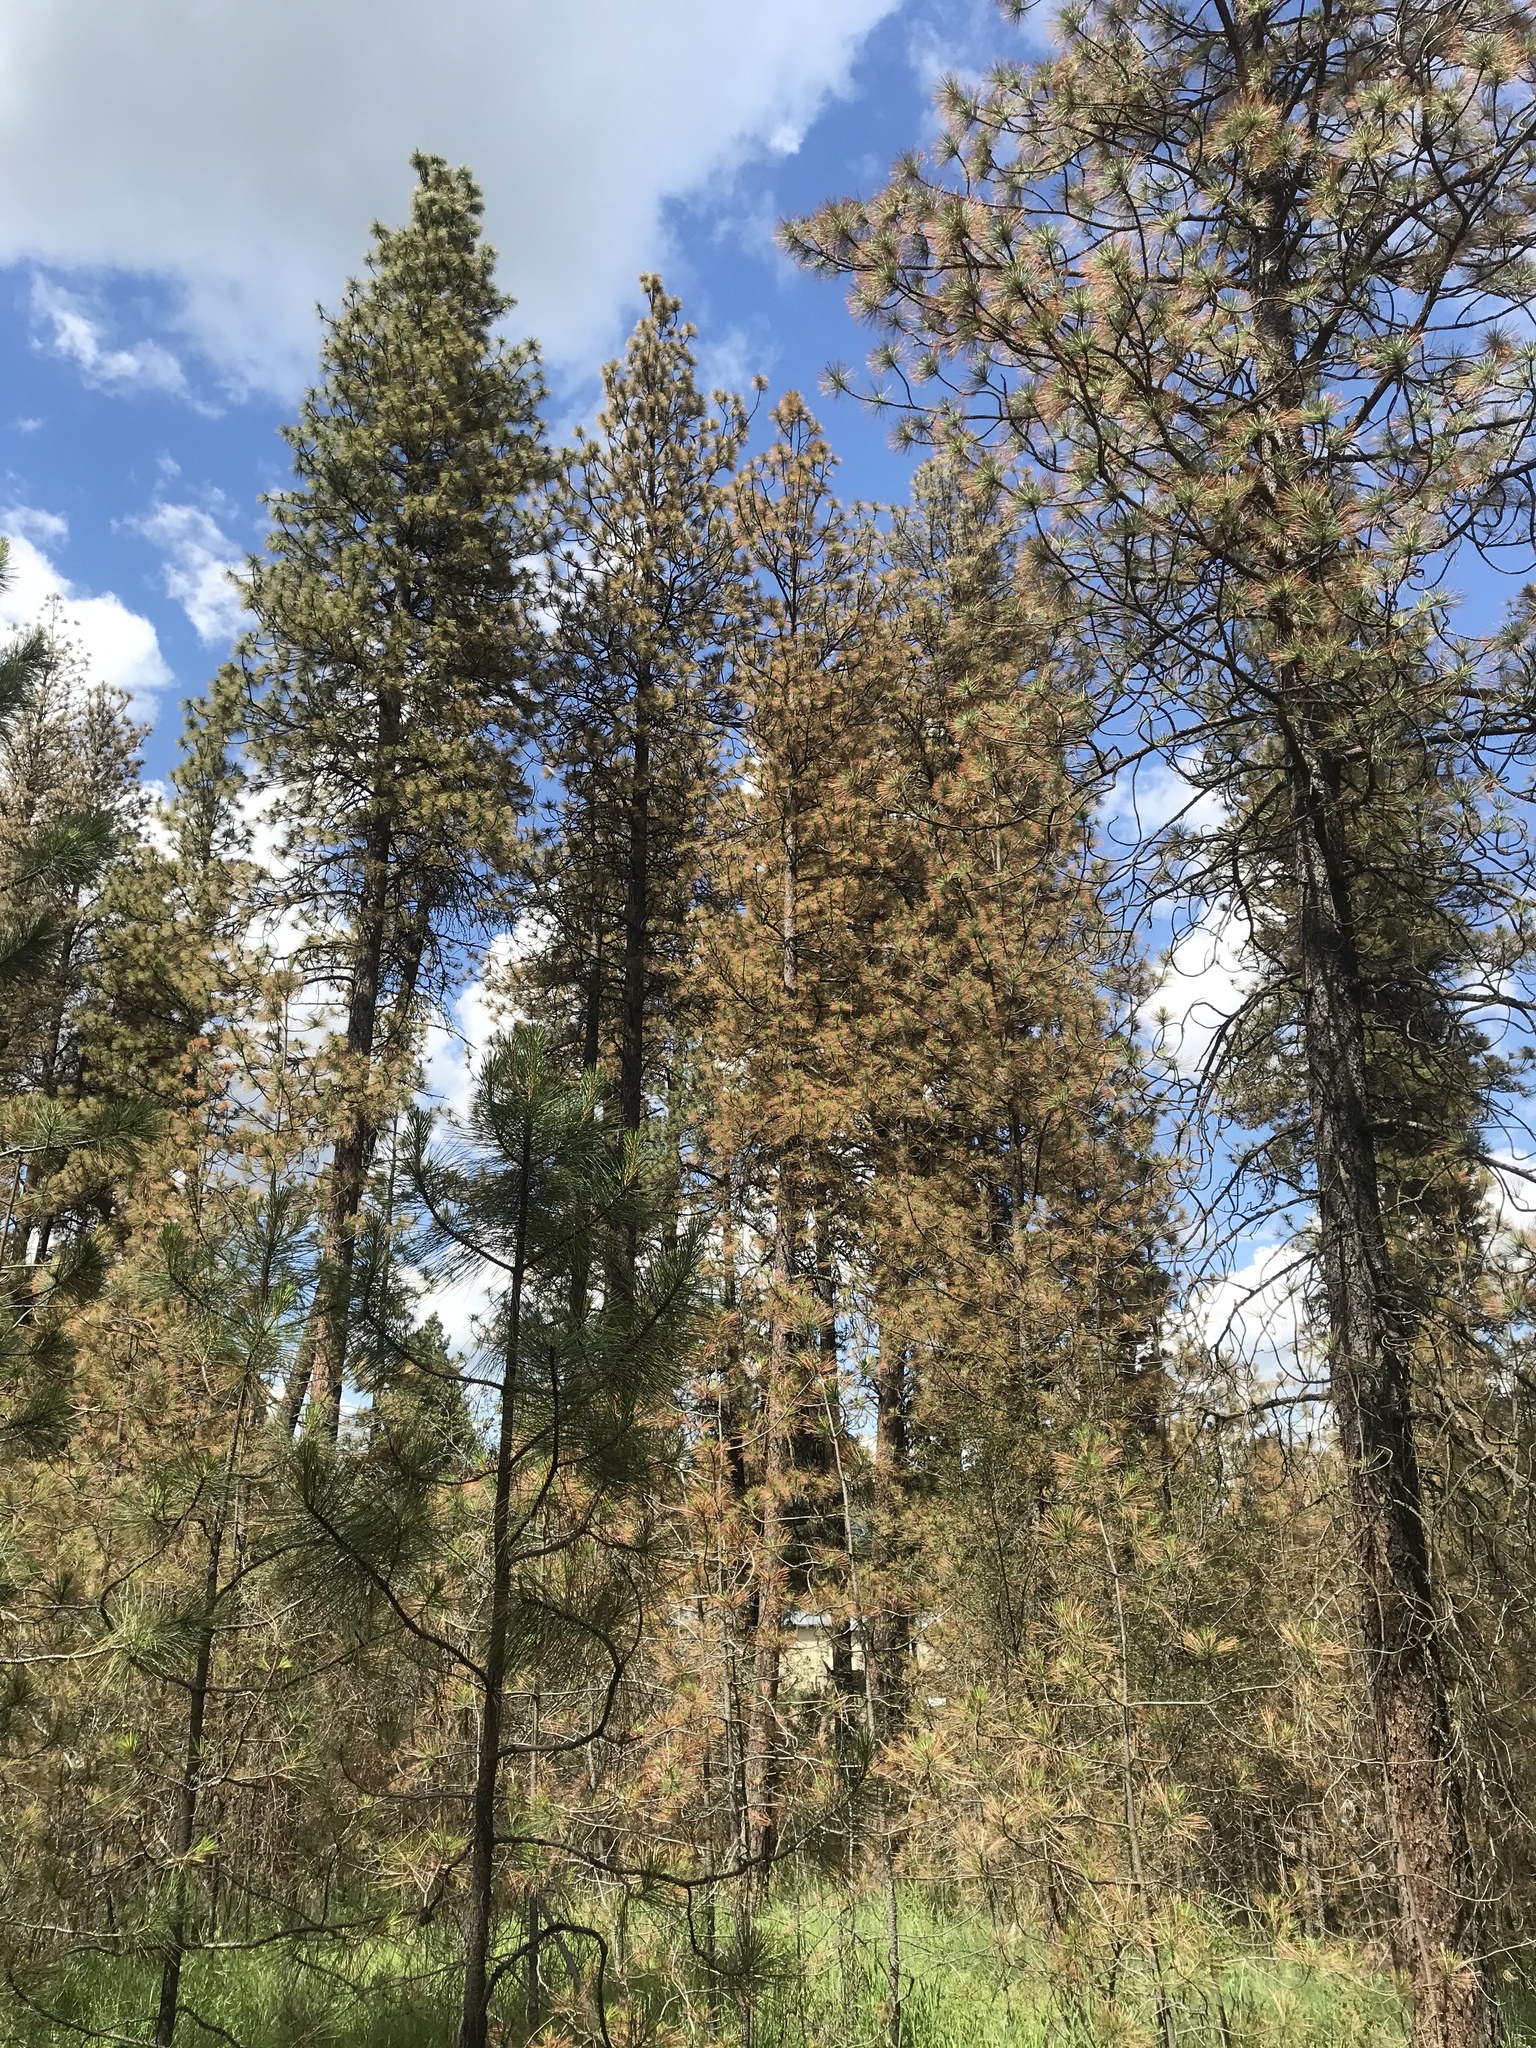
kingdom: Plantae
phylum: Tracheophyta
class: Pinopsida
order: Pinales
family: Pinaceae
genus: Pinus
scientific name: Pinus ponderosa
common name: Western yellow-pine
